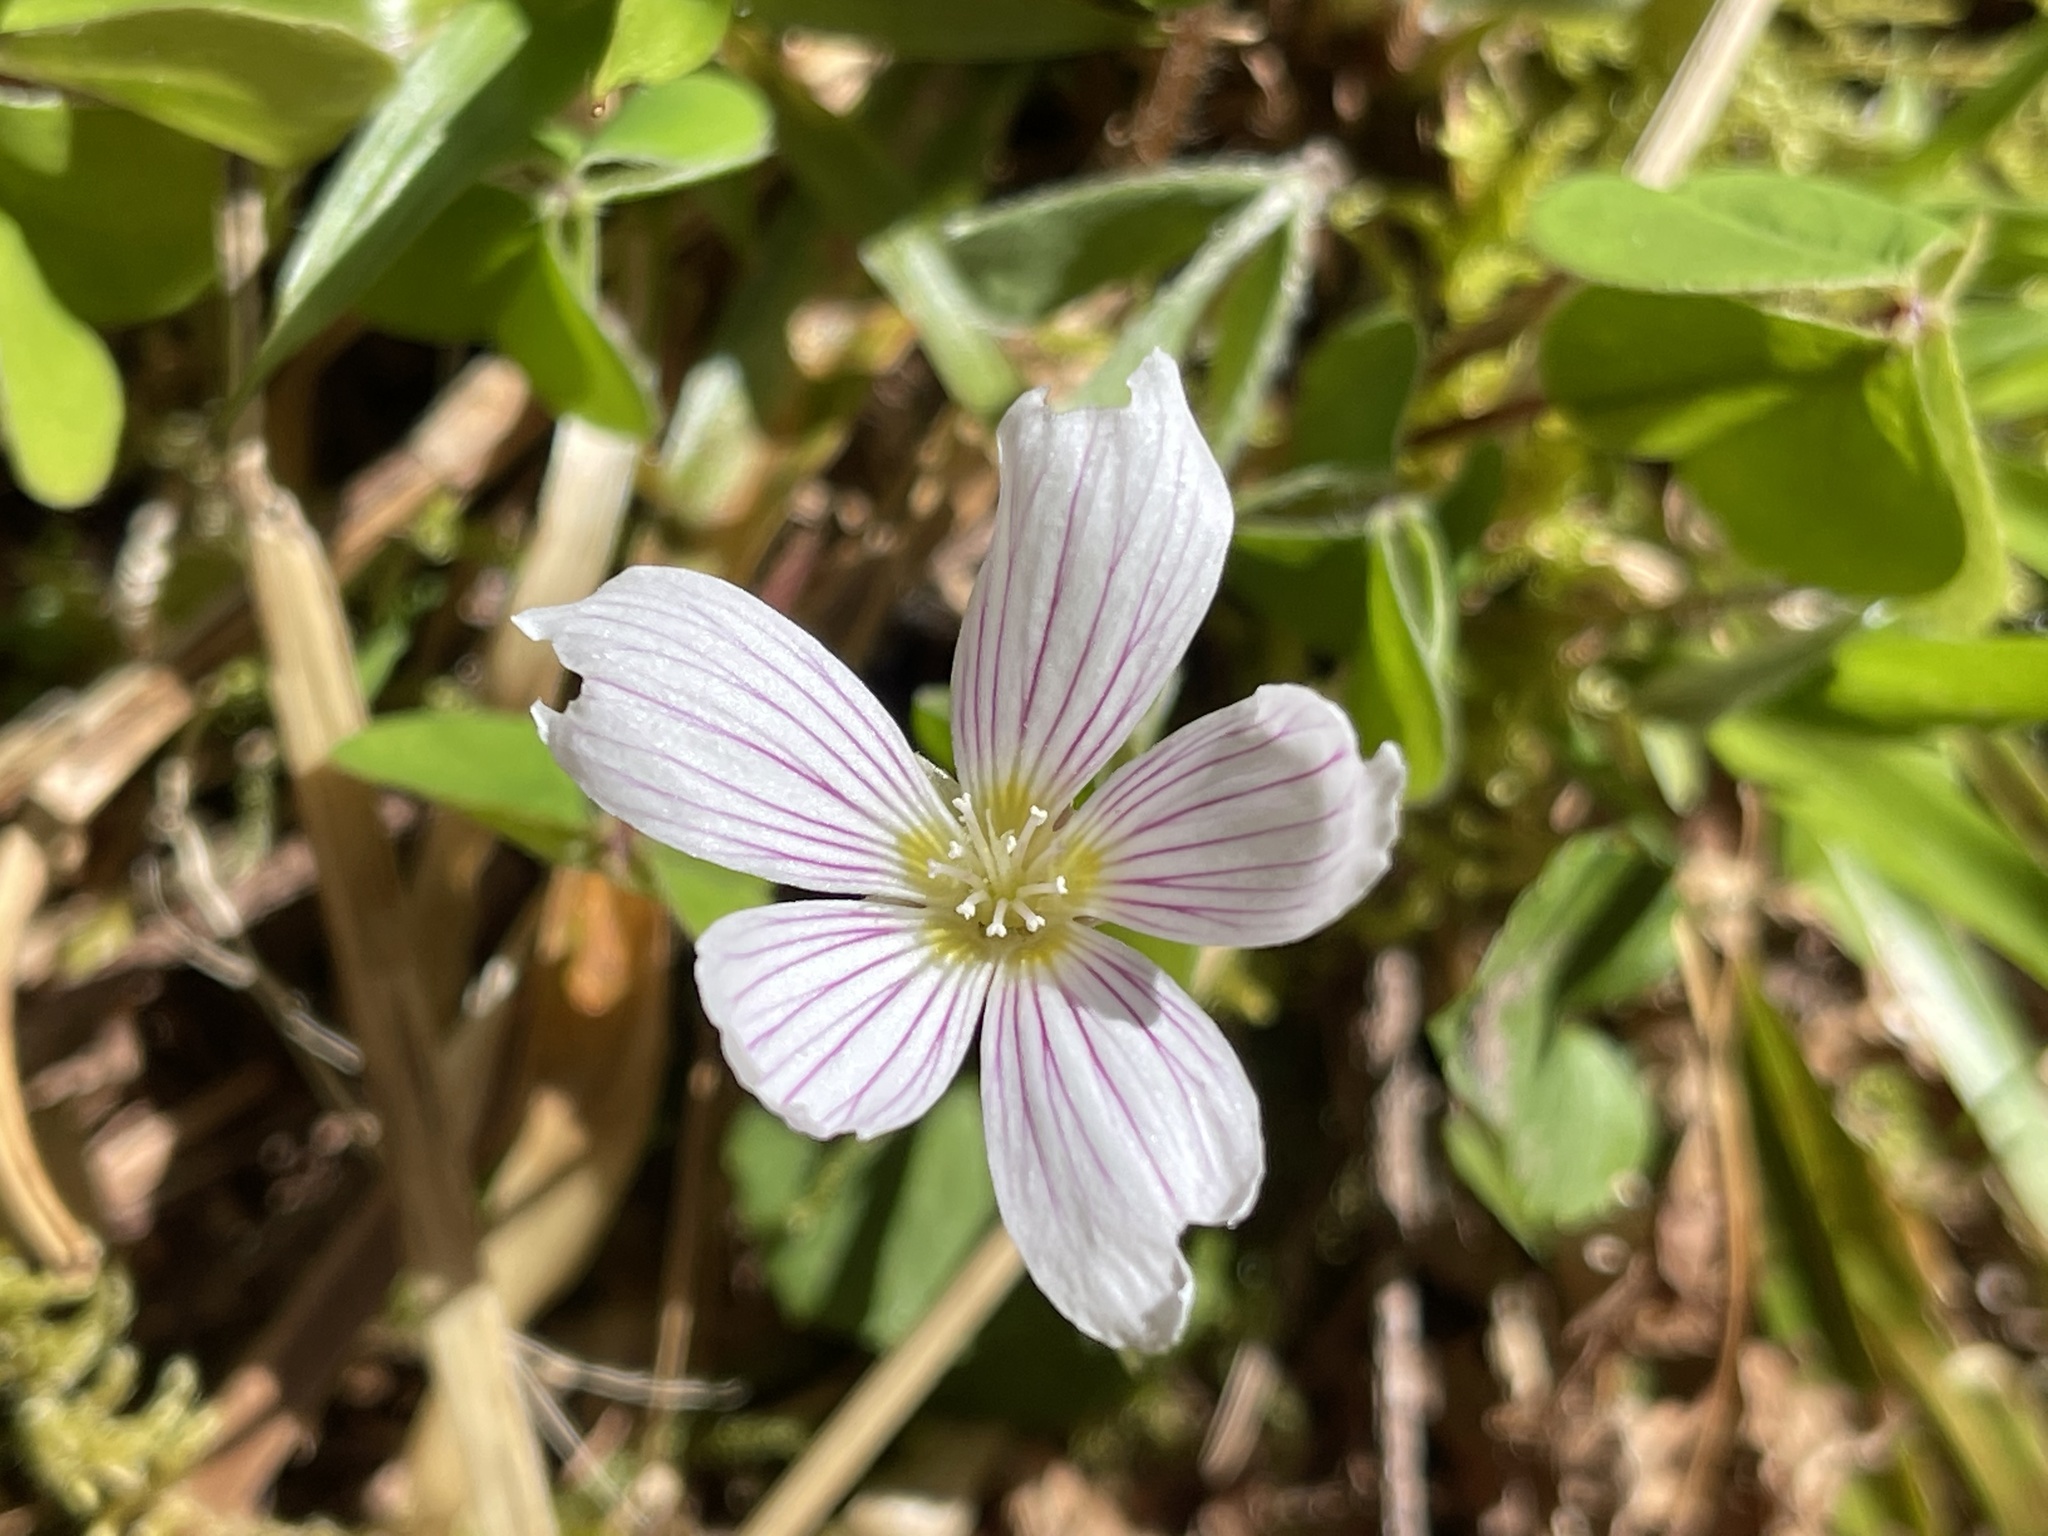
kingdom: Plantae
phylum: Tracheophyta
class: Magnoliopsida
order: Oxalidales
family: Oxalidaceae
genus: Oxalis
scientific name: Oxalis oregana
